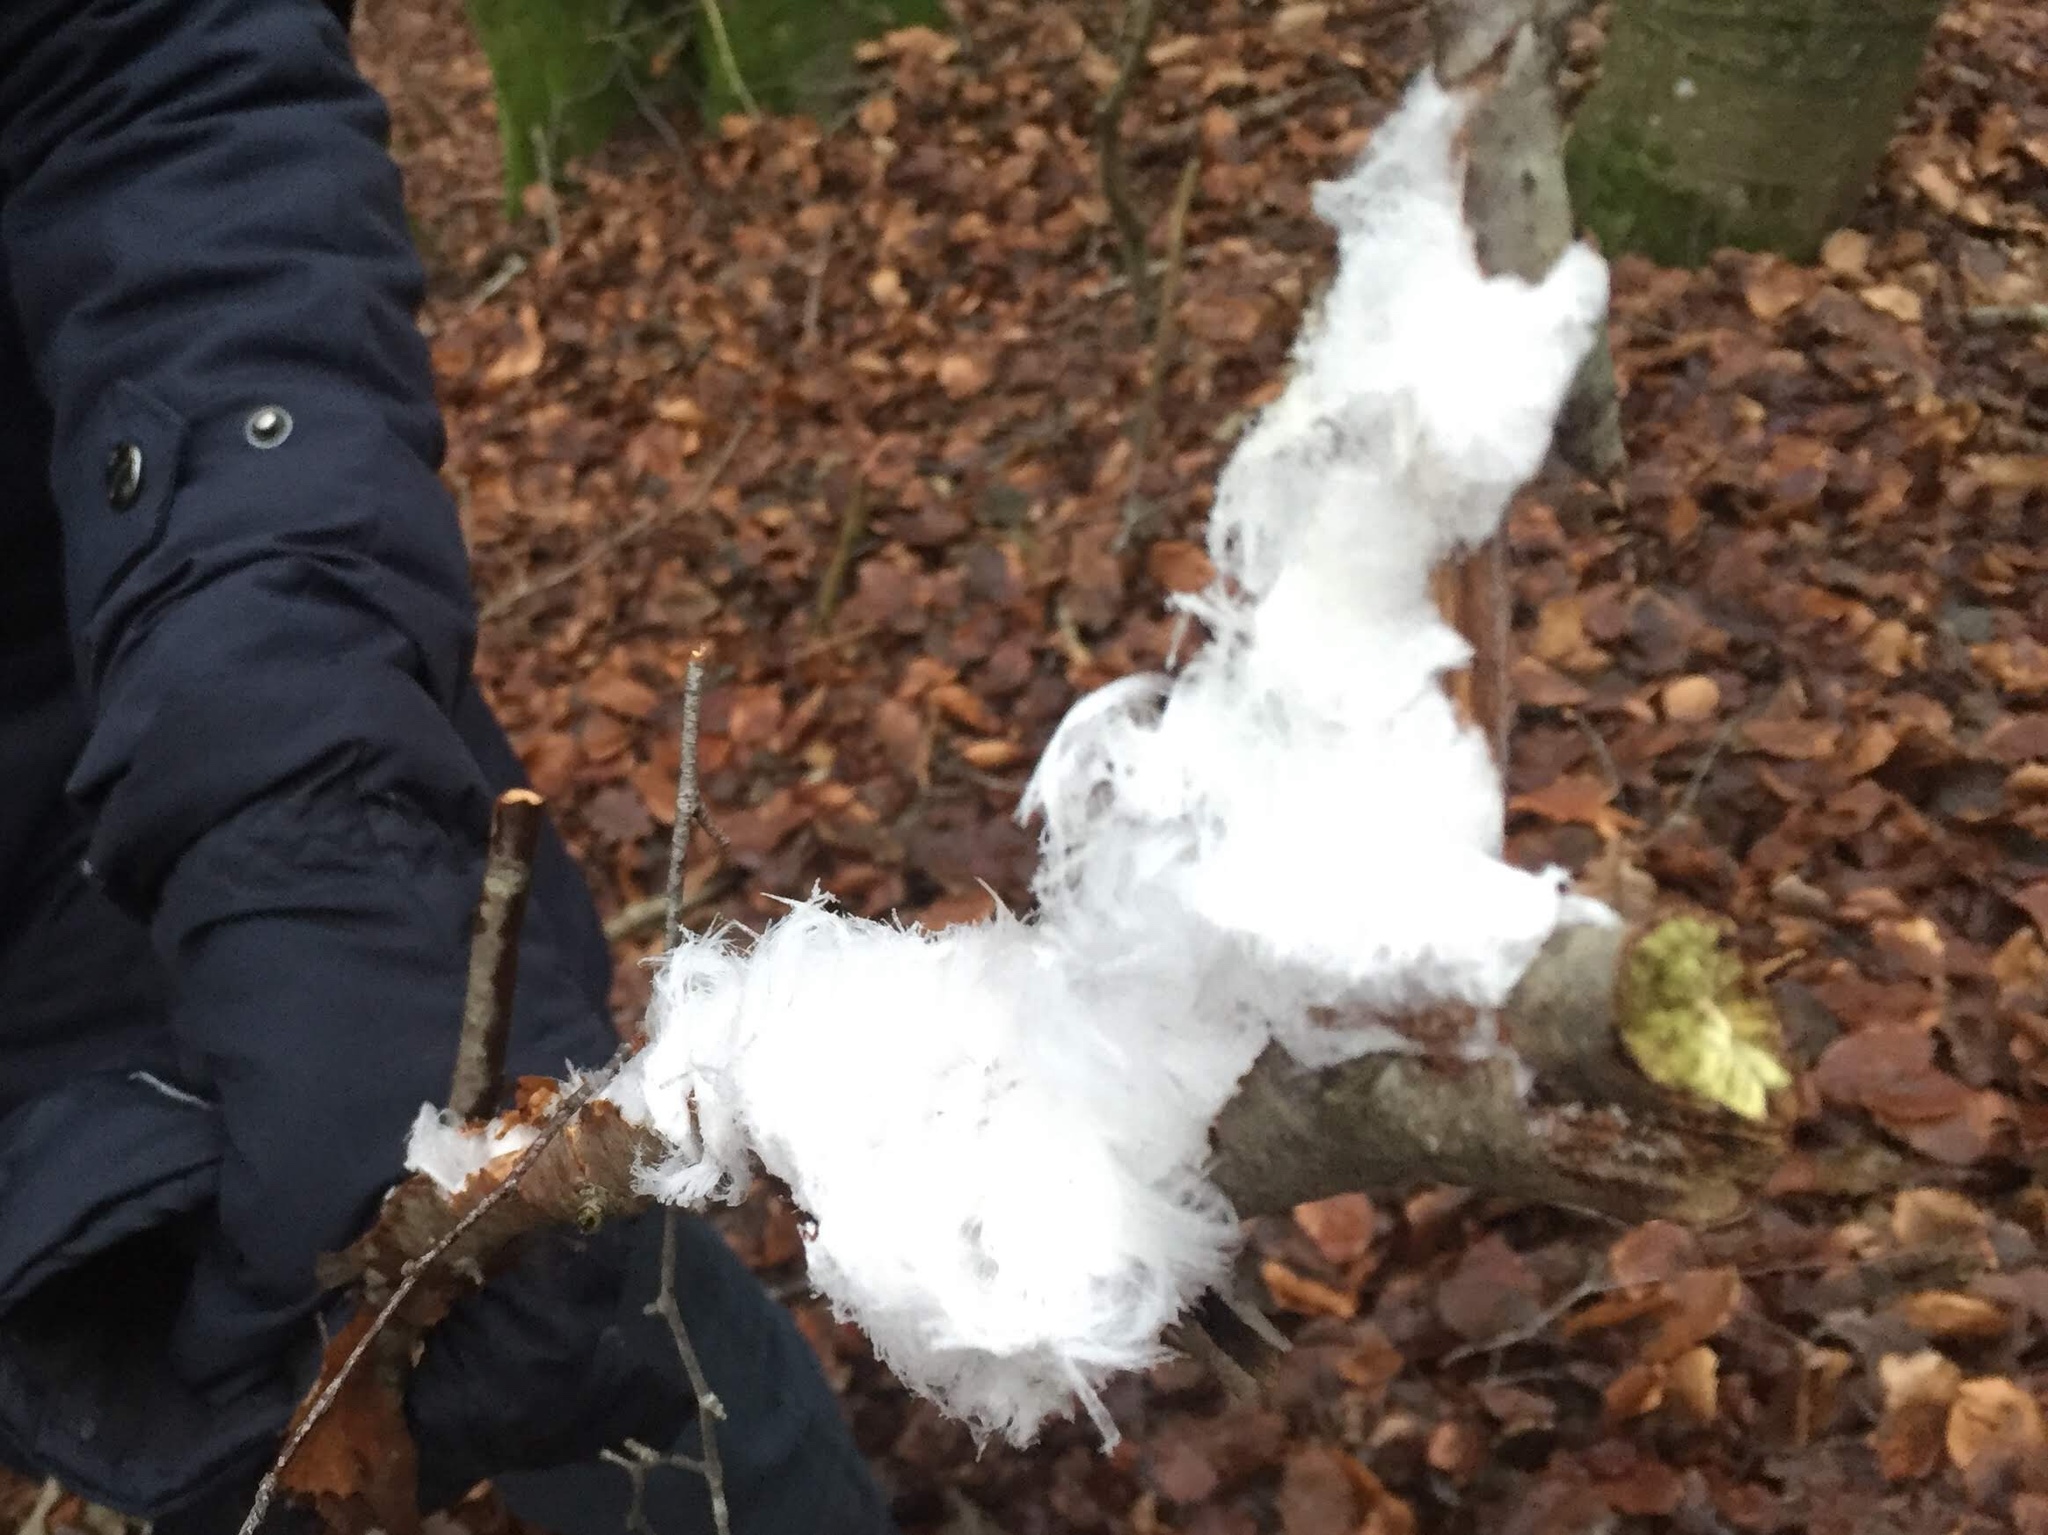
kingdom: Fungi
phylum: Basidiomycota
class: Agaricomycetes
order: Auriculariales
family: Auriculariaceae
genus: Exidiopsis
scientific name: Exidiopsis effusa
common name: Hair ice crust
